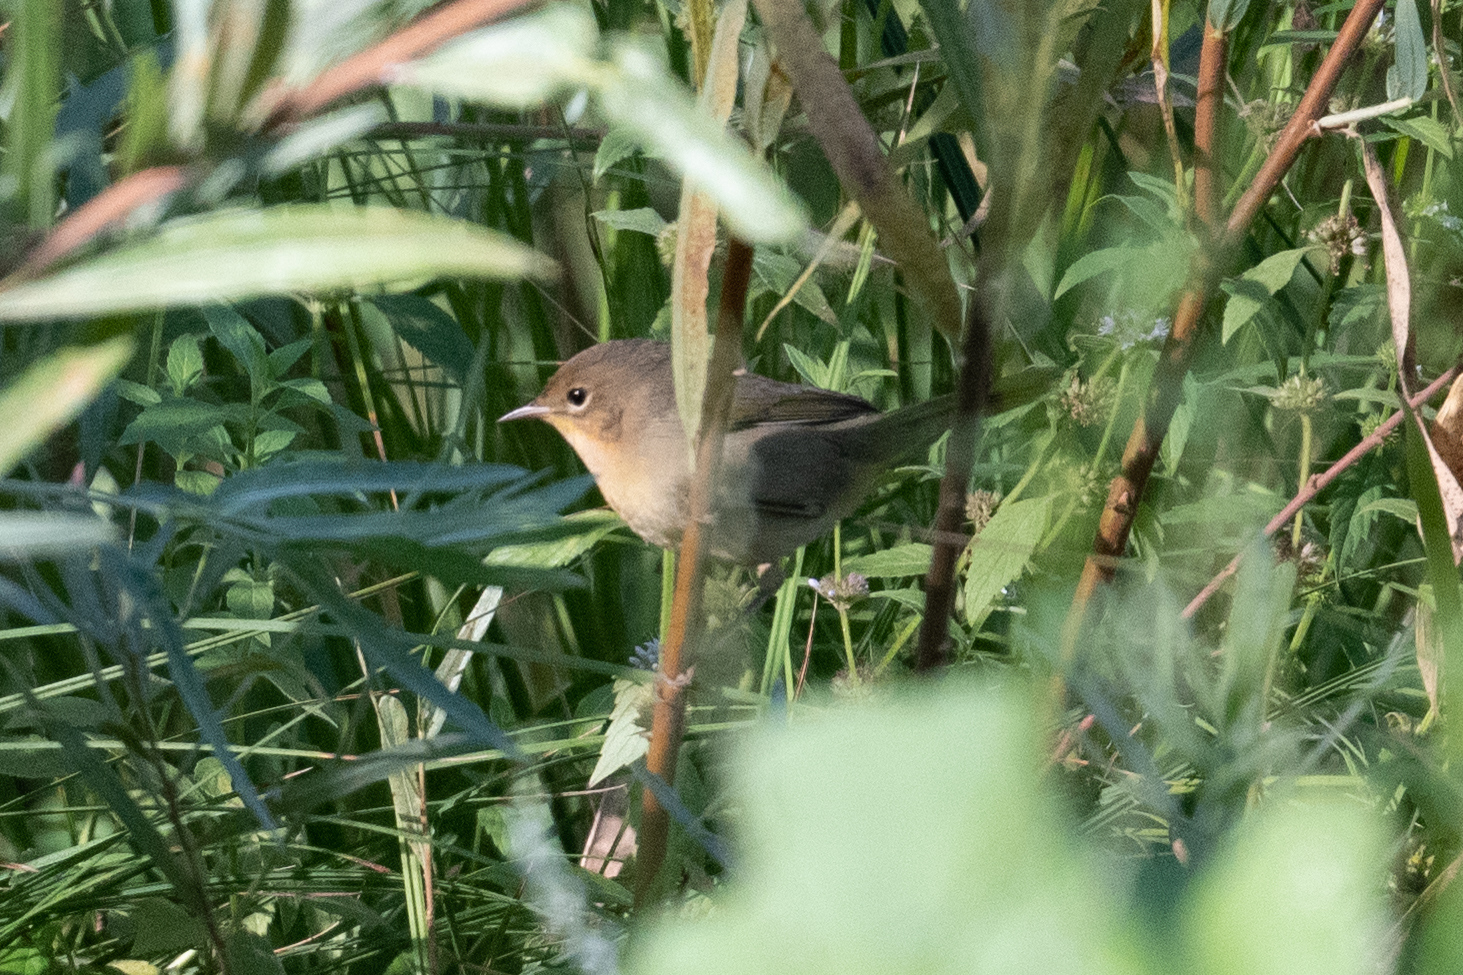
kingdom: Animalia
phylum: Chordata
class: Aves
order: Passeriformes
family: Parulidae
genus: Geothlypis
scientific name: Geothlypis trichas
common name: Common yellowthroat
